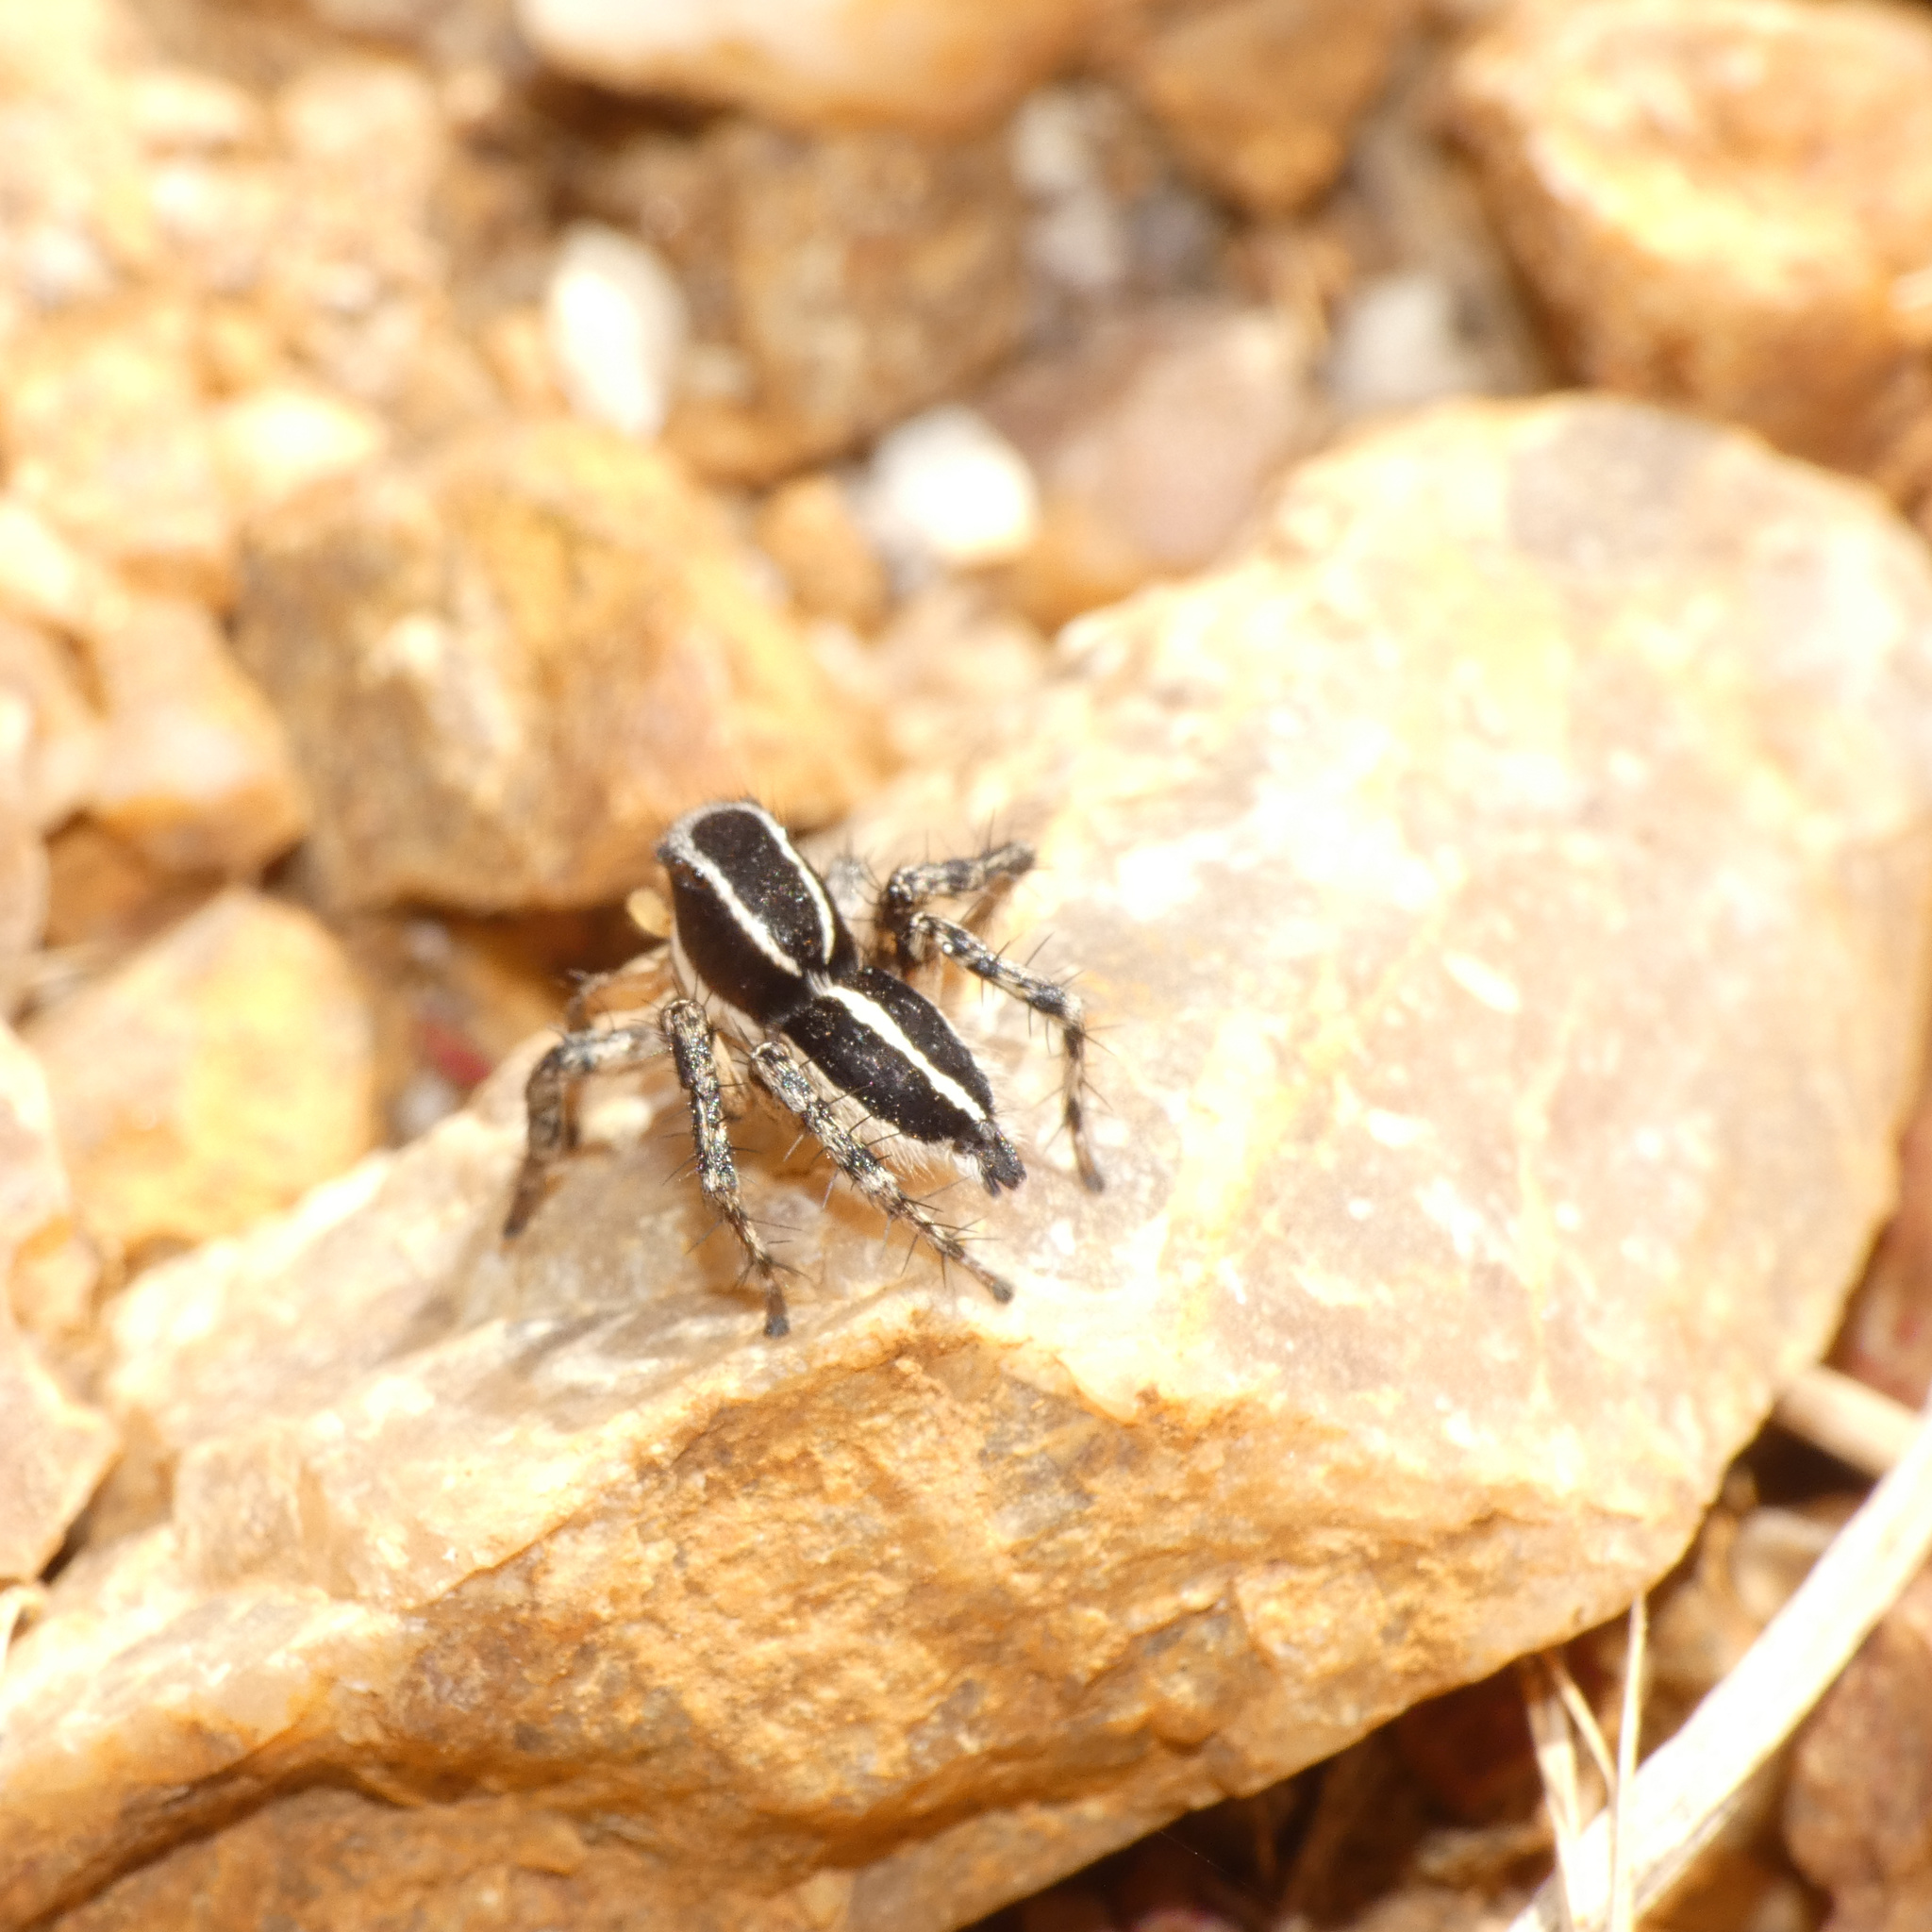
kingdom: Animalia
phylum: Arthropoda
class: Arachnida
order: Araneae
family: Salticidae
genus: Stenaelurillus
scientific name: Stenaelurillus termitophagus
